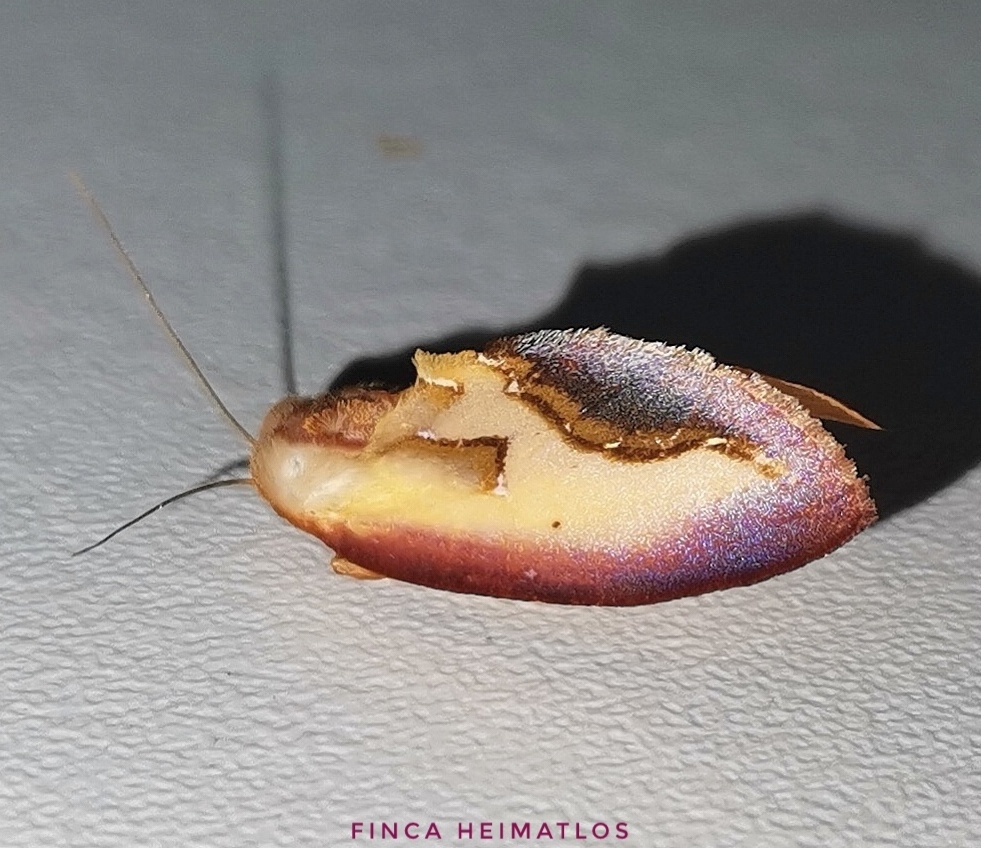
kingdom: Animalia
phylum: Arthropoda
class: Insecta
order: Lepidoptera
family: Notodontidae
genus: Maschane
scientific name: Maschane fragilis
